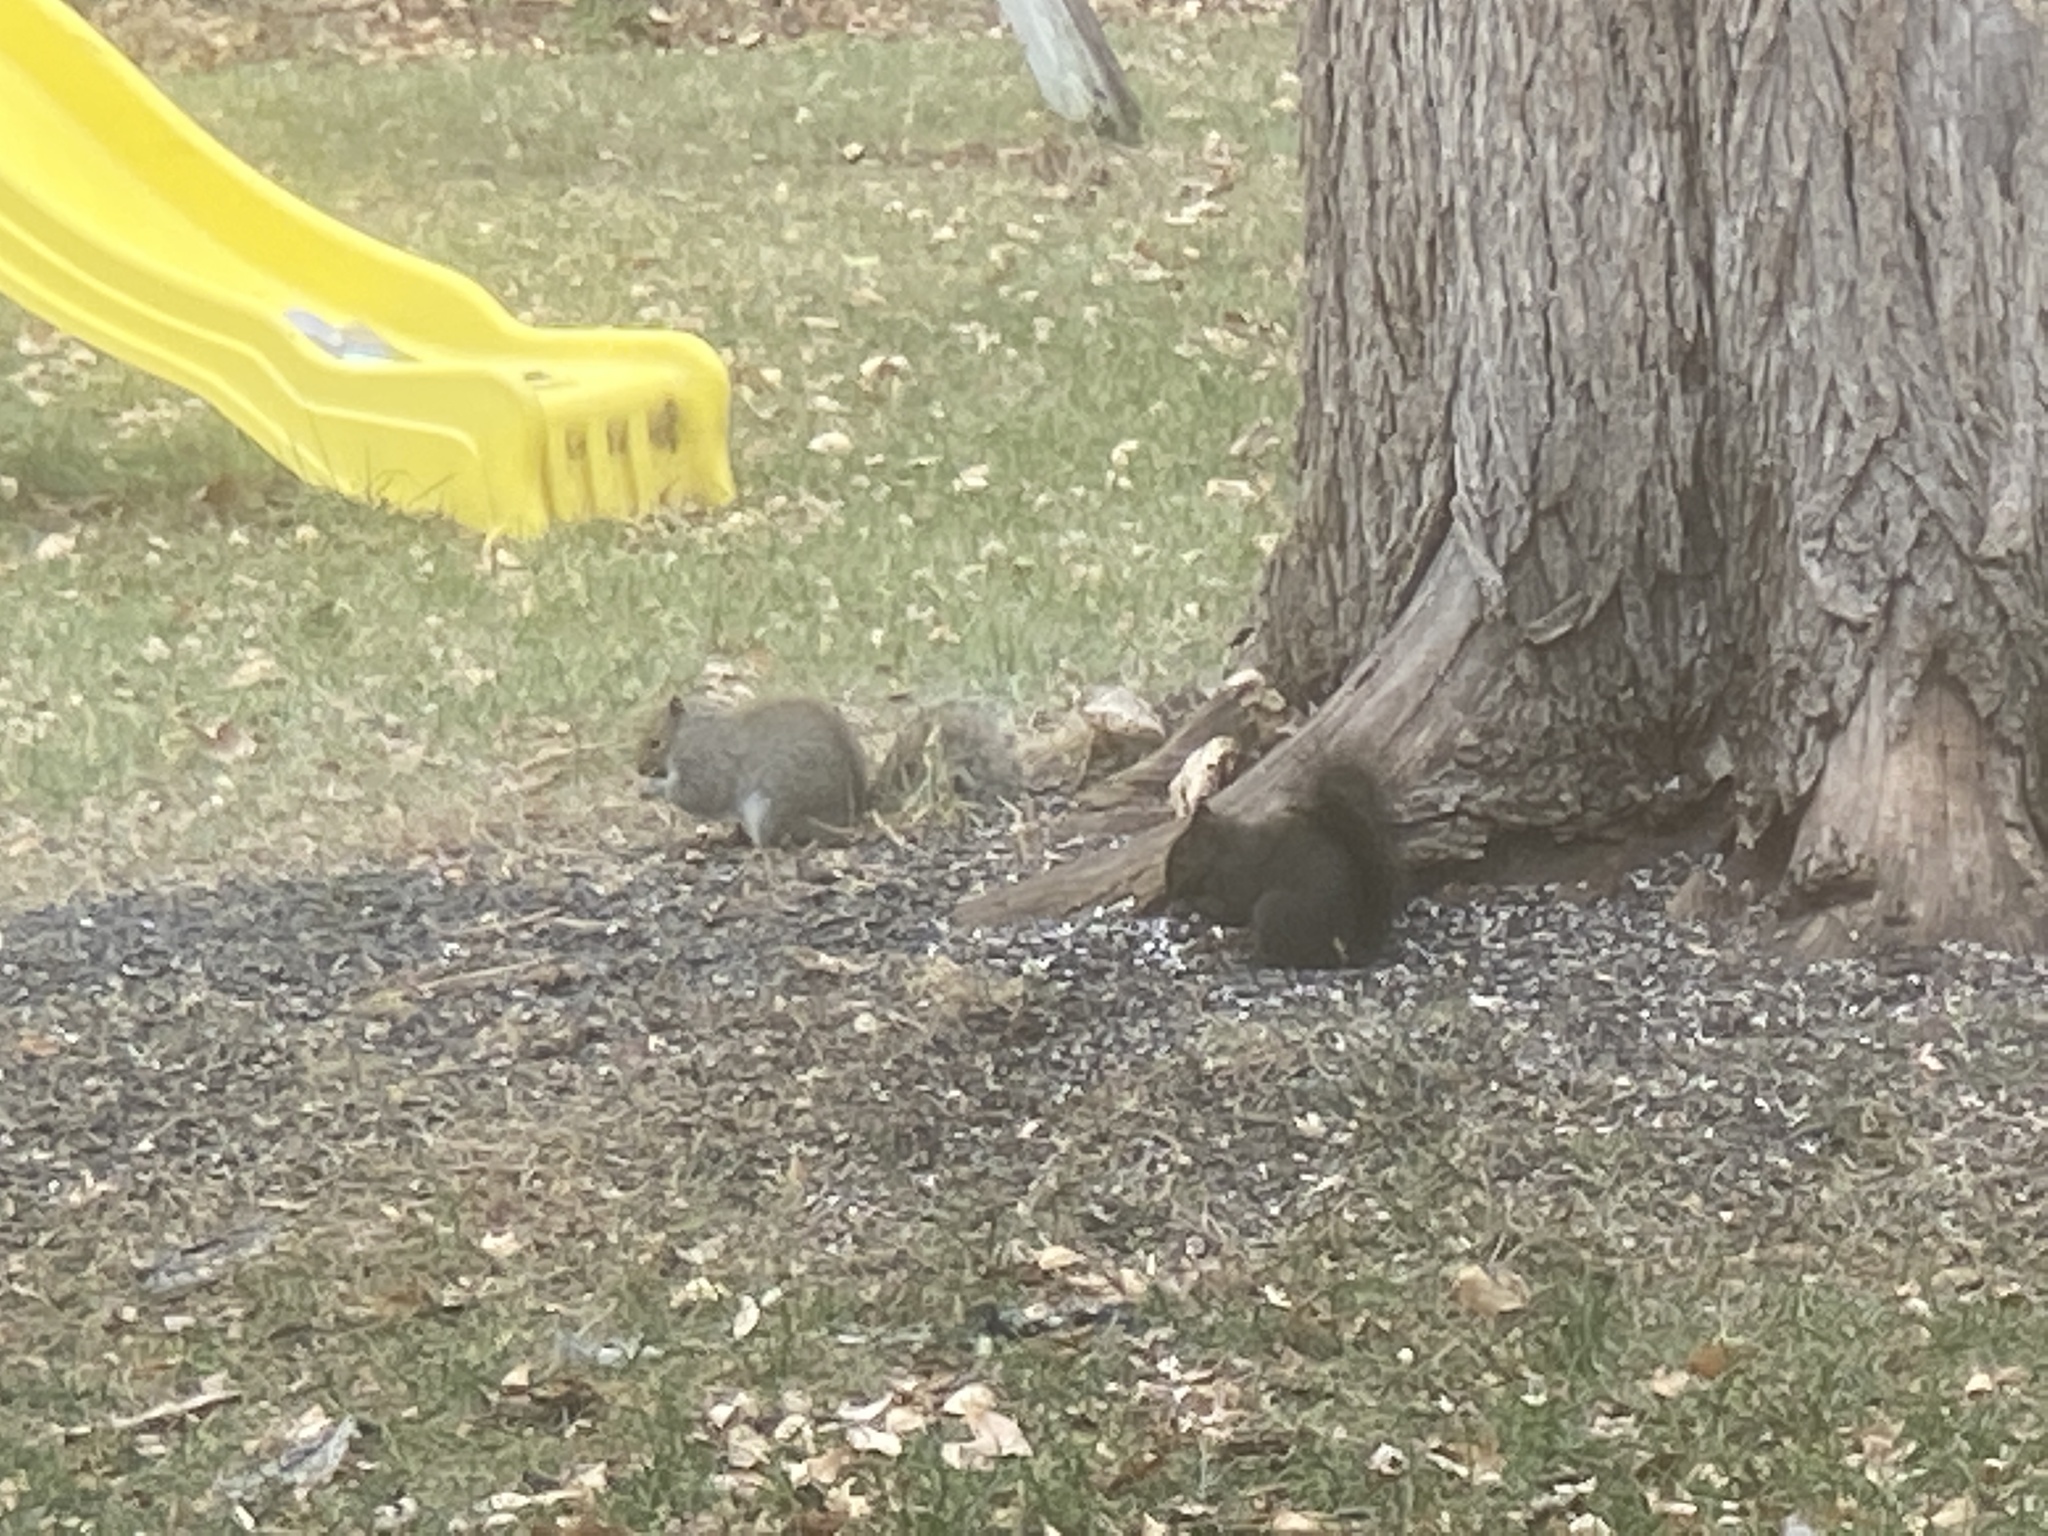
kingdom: Animalia
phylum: Chordata
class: Mammalia
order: Rodentia
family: Sciuridae
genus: Sciurus
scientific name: Sciurus carolinensis
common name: Eastern gray squirrel
